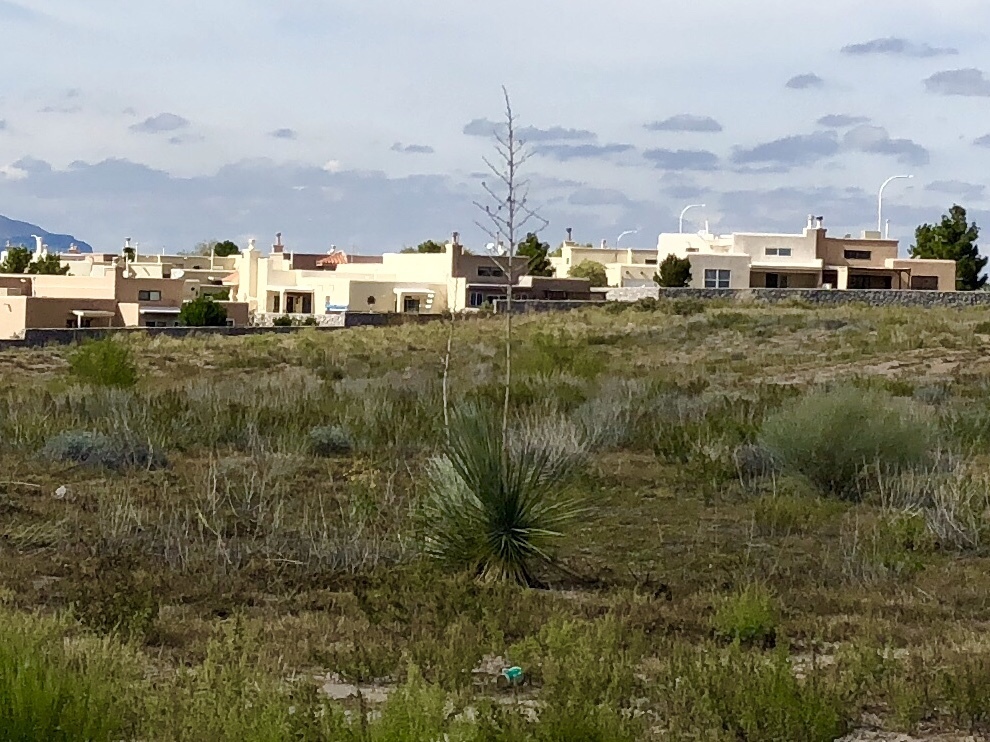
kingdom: Plantae
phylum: Tracheophyta
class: Liliopsida
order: Asparagales
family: Asparagaceae
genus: Yucca
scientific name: Yucca elata
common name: Palmella
